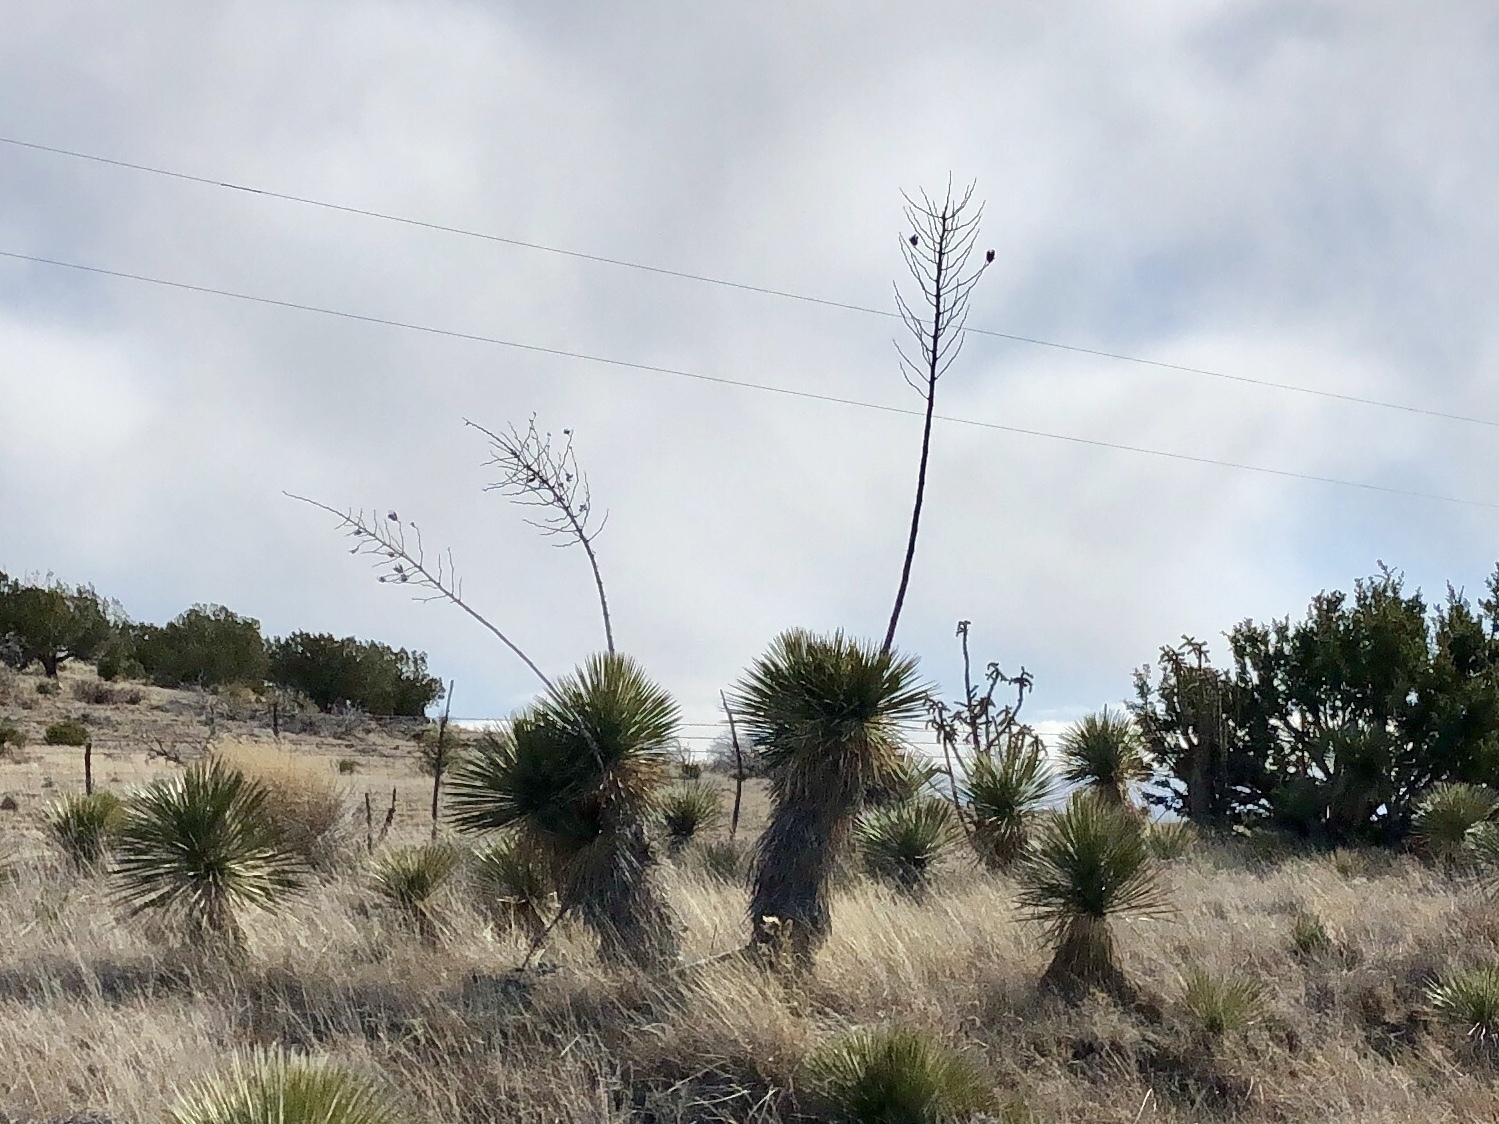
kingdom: Plantae
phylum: Tracheophyta
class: Liliopsida
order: Asparagales
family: Asparagaceae
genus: Yucca
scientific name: Yucca elata
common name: Palmella
